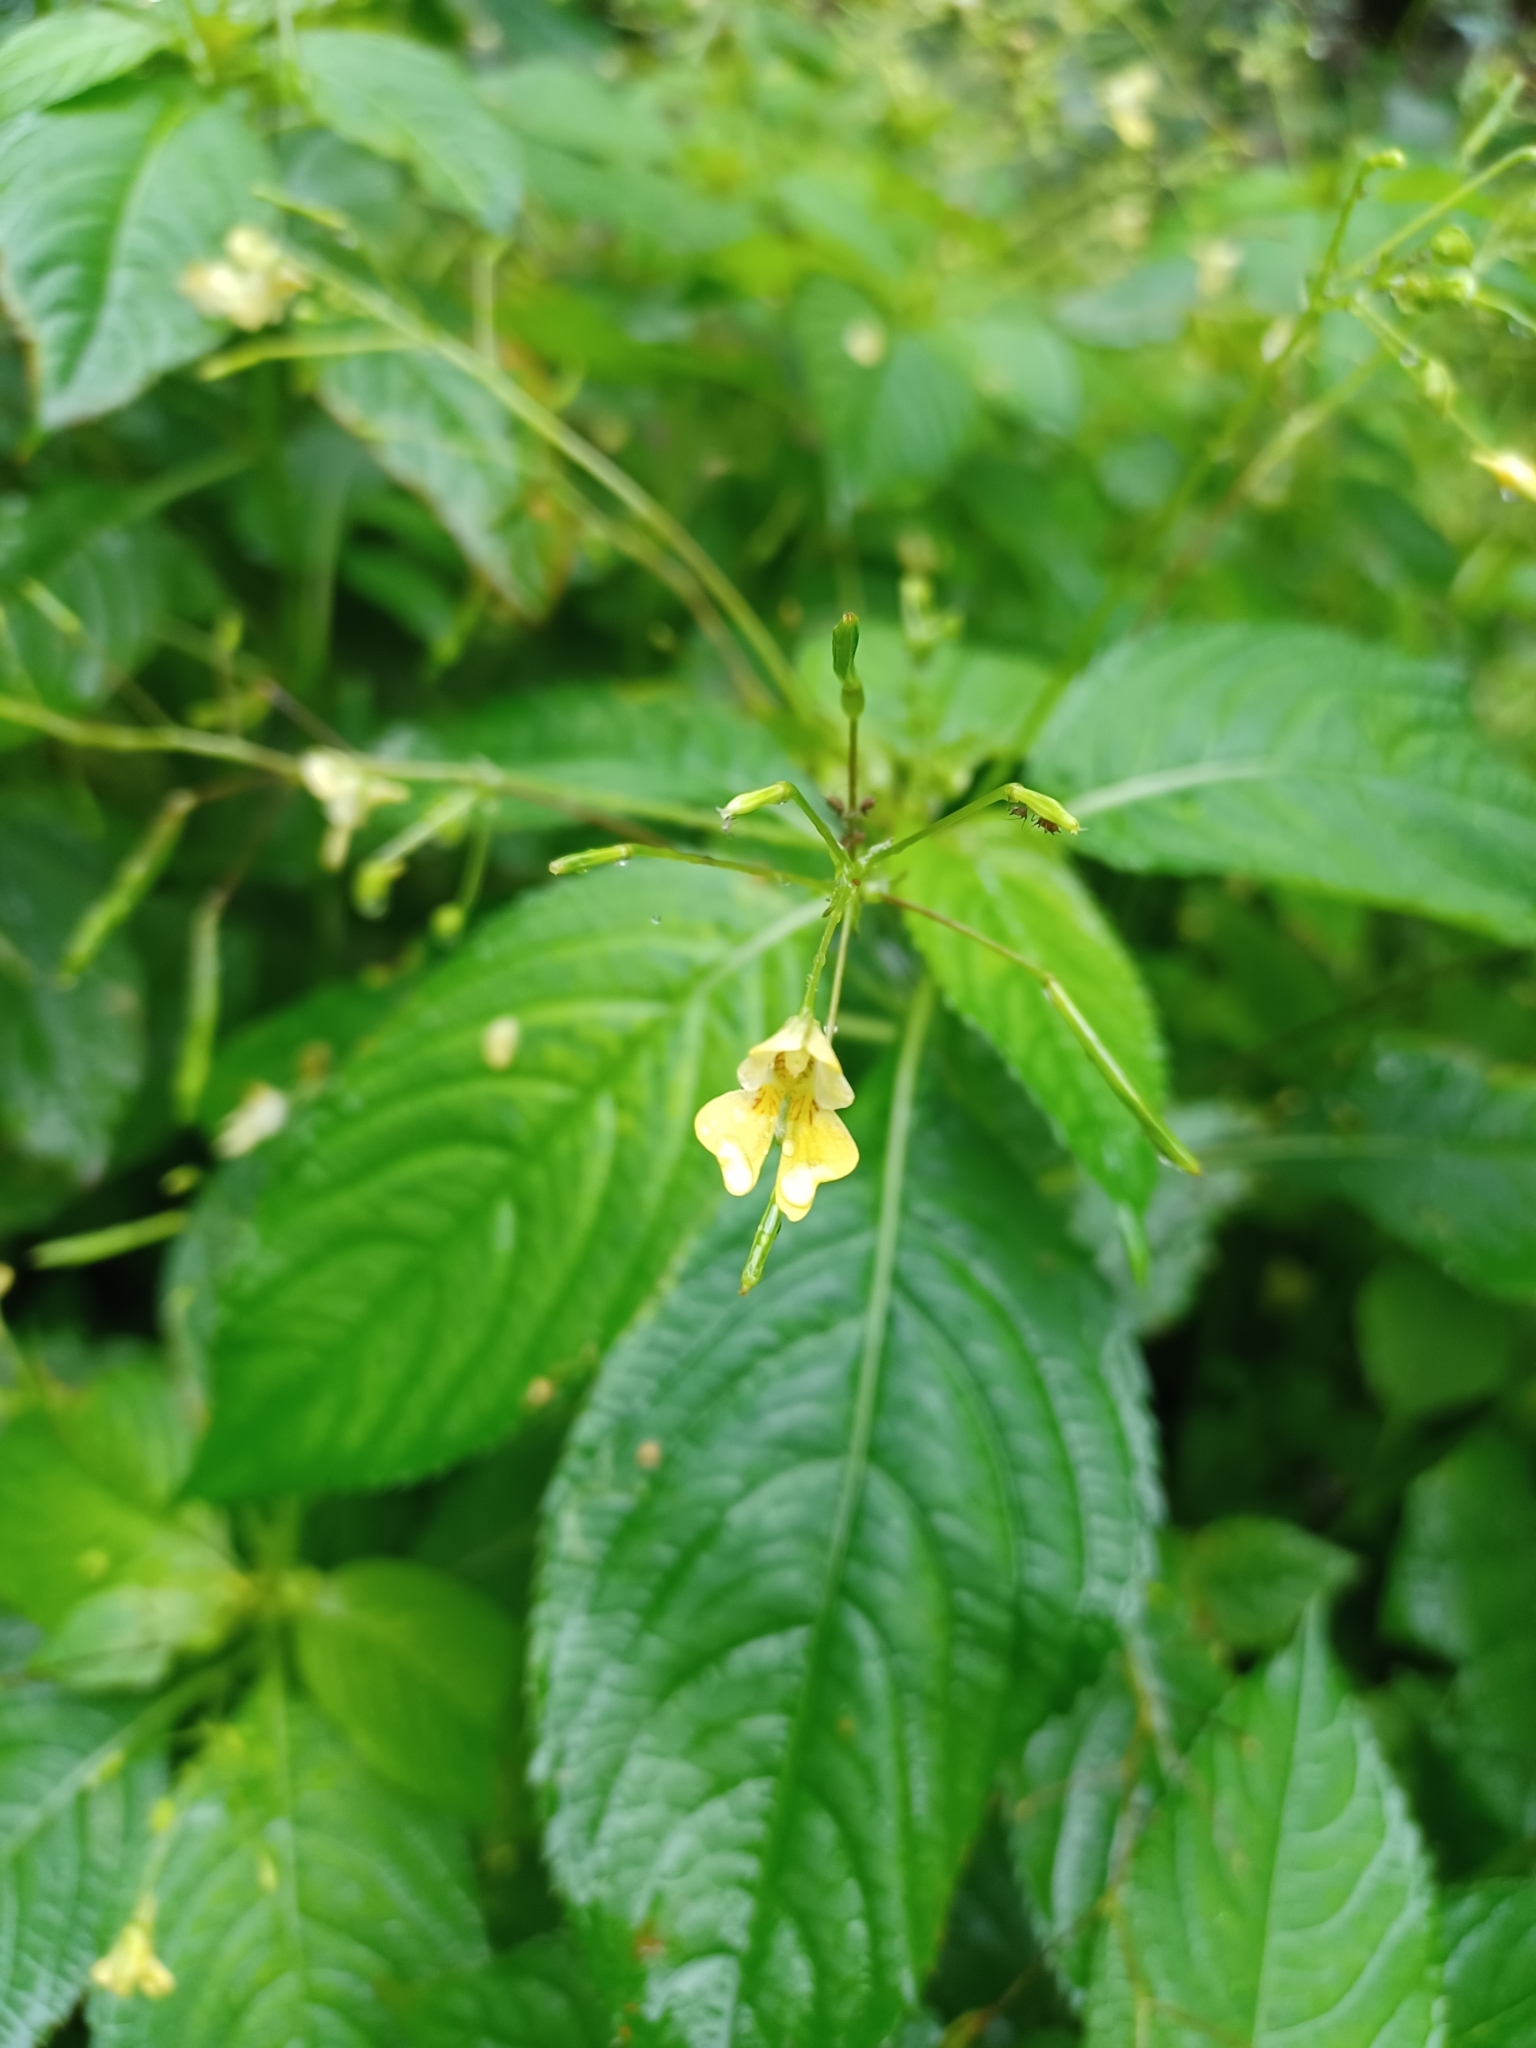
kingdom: Plantae
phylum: Tracheophyta
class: Magnoliopsida
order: Ericales
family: Balsaminaceae
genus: Impatiens
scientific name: Impatiens parviflora
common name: Small balsam
